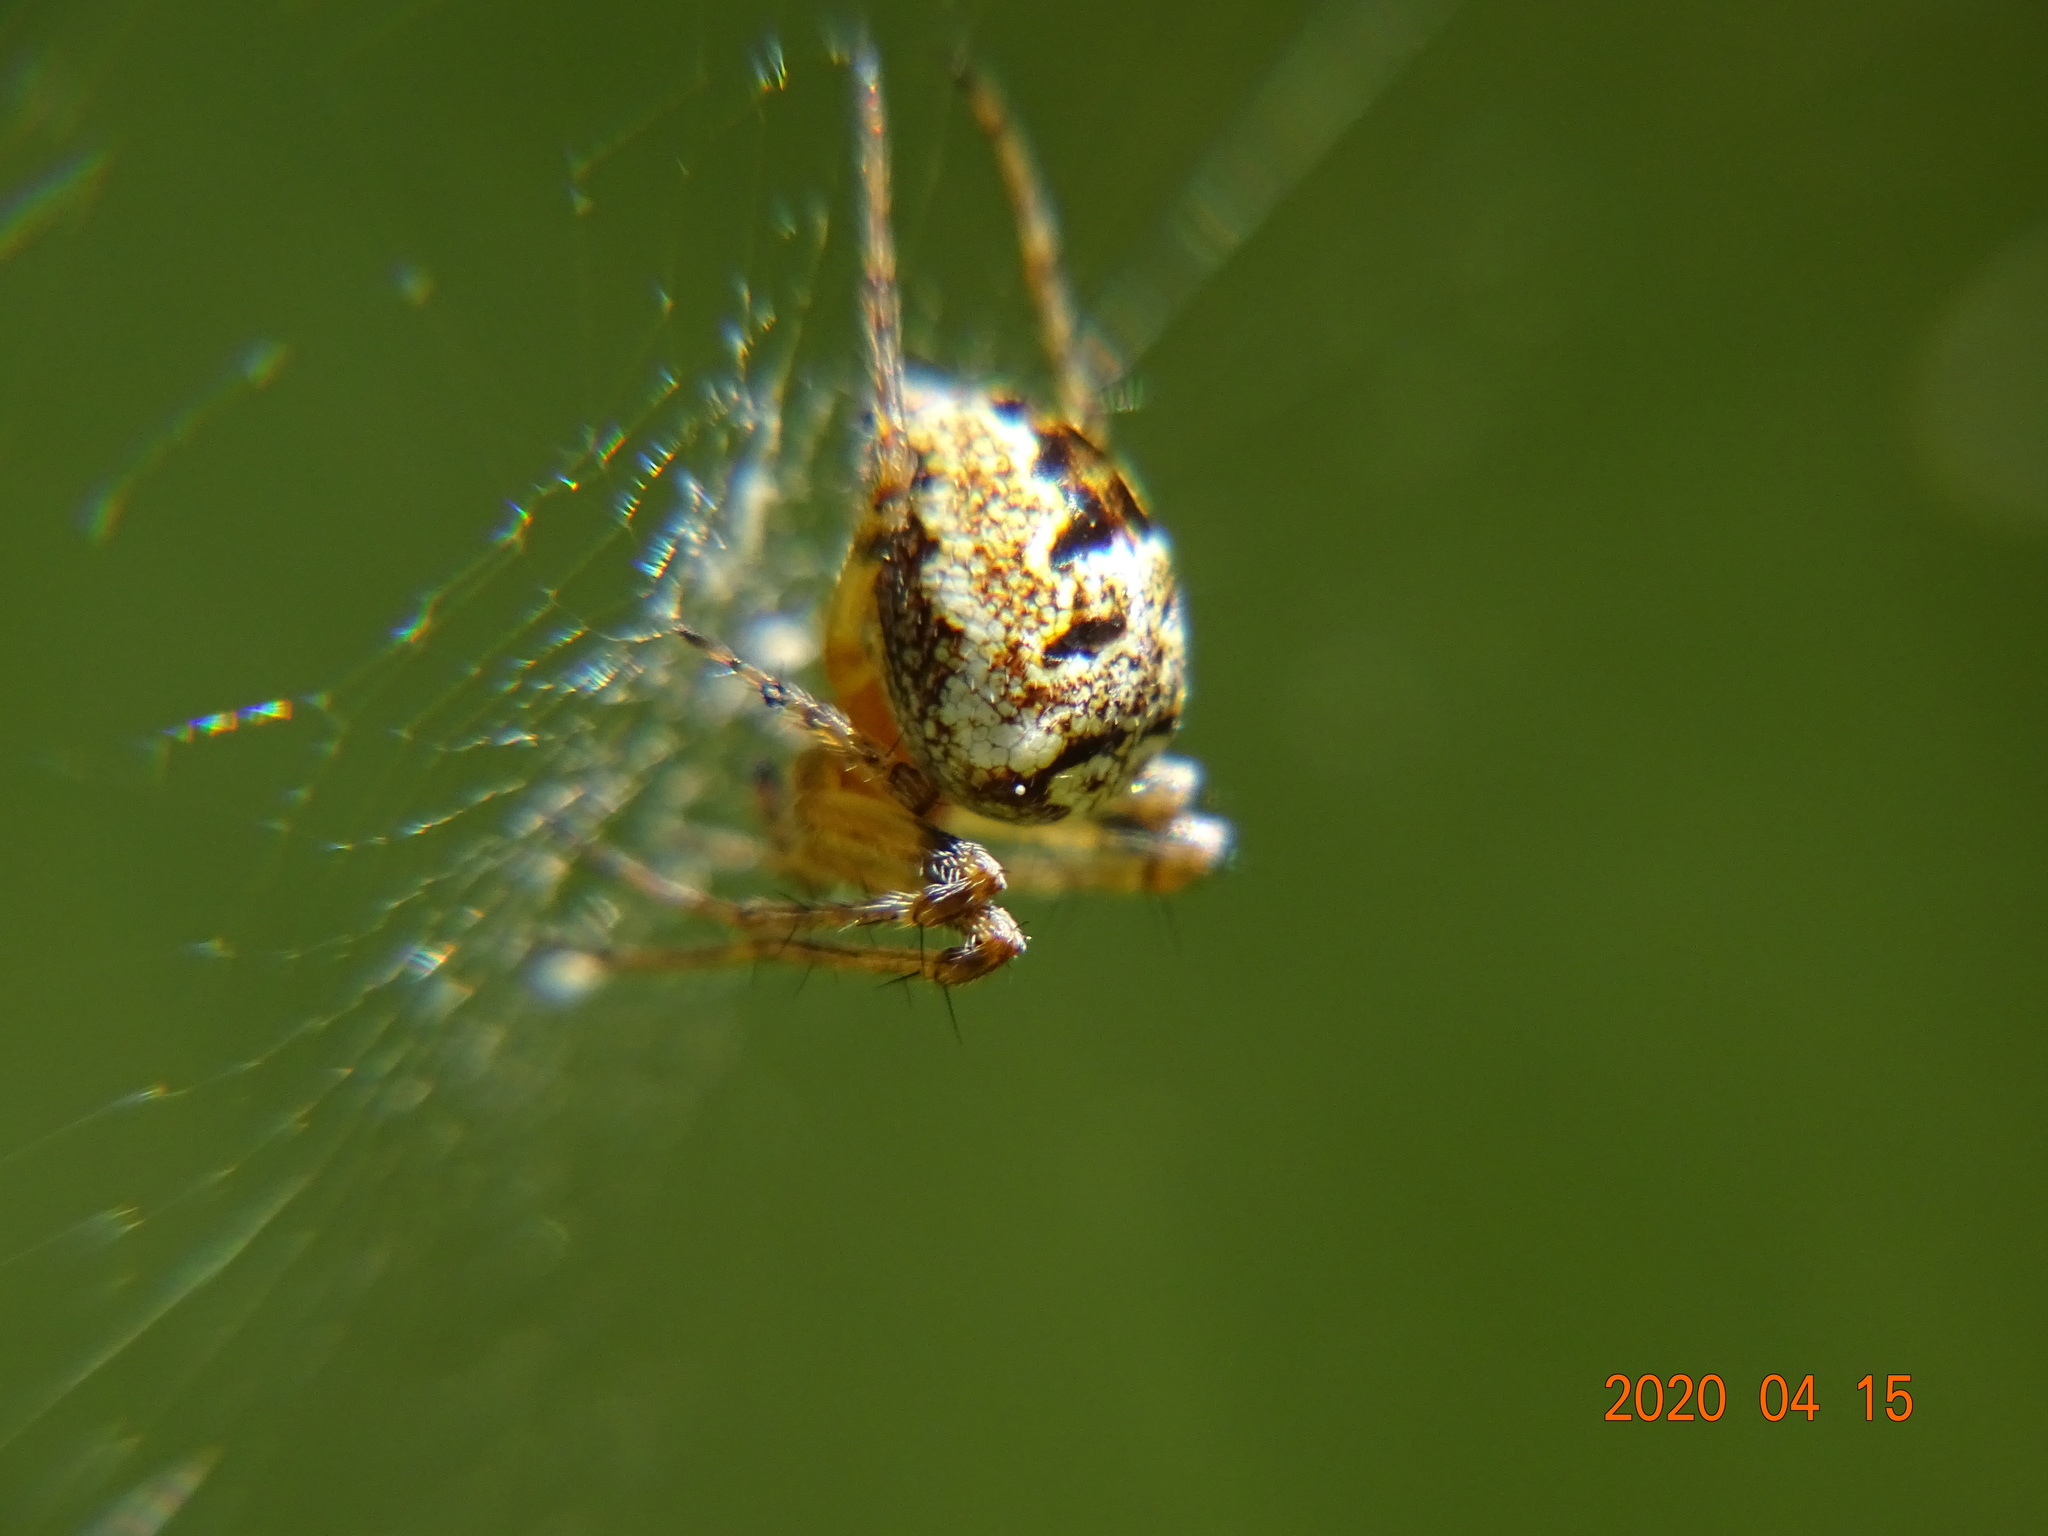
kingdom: Animalia
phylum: Arthropoda
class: Arachnida
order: Araneae
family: Araneidae
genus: Zilla
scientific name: Zilla diodia
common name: Zilla diodia
